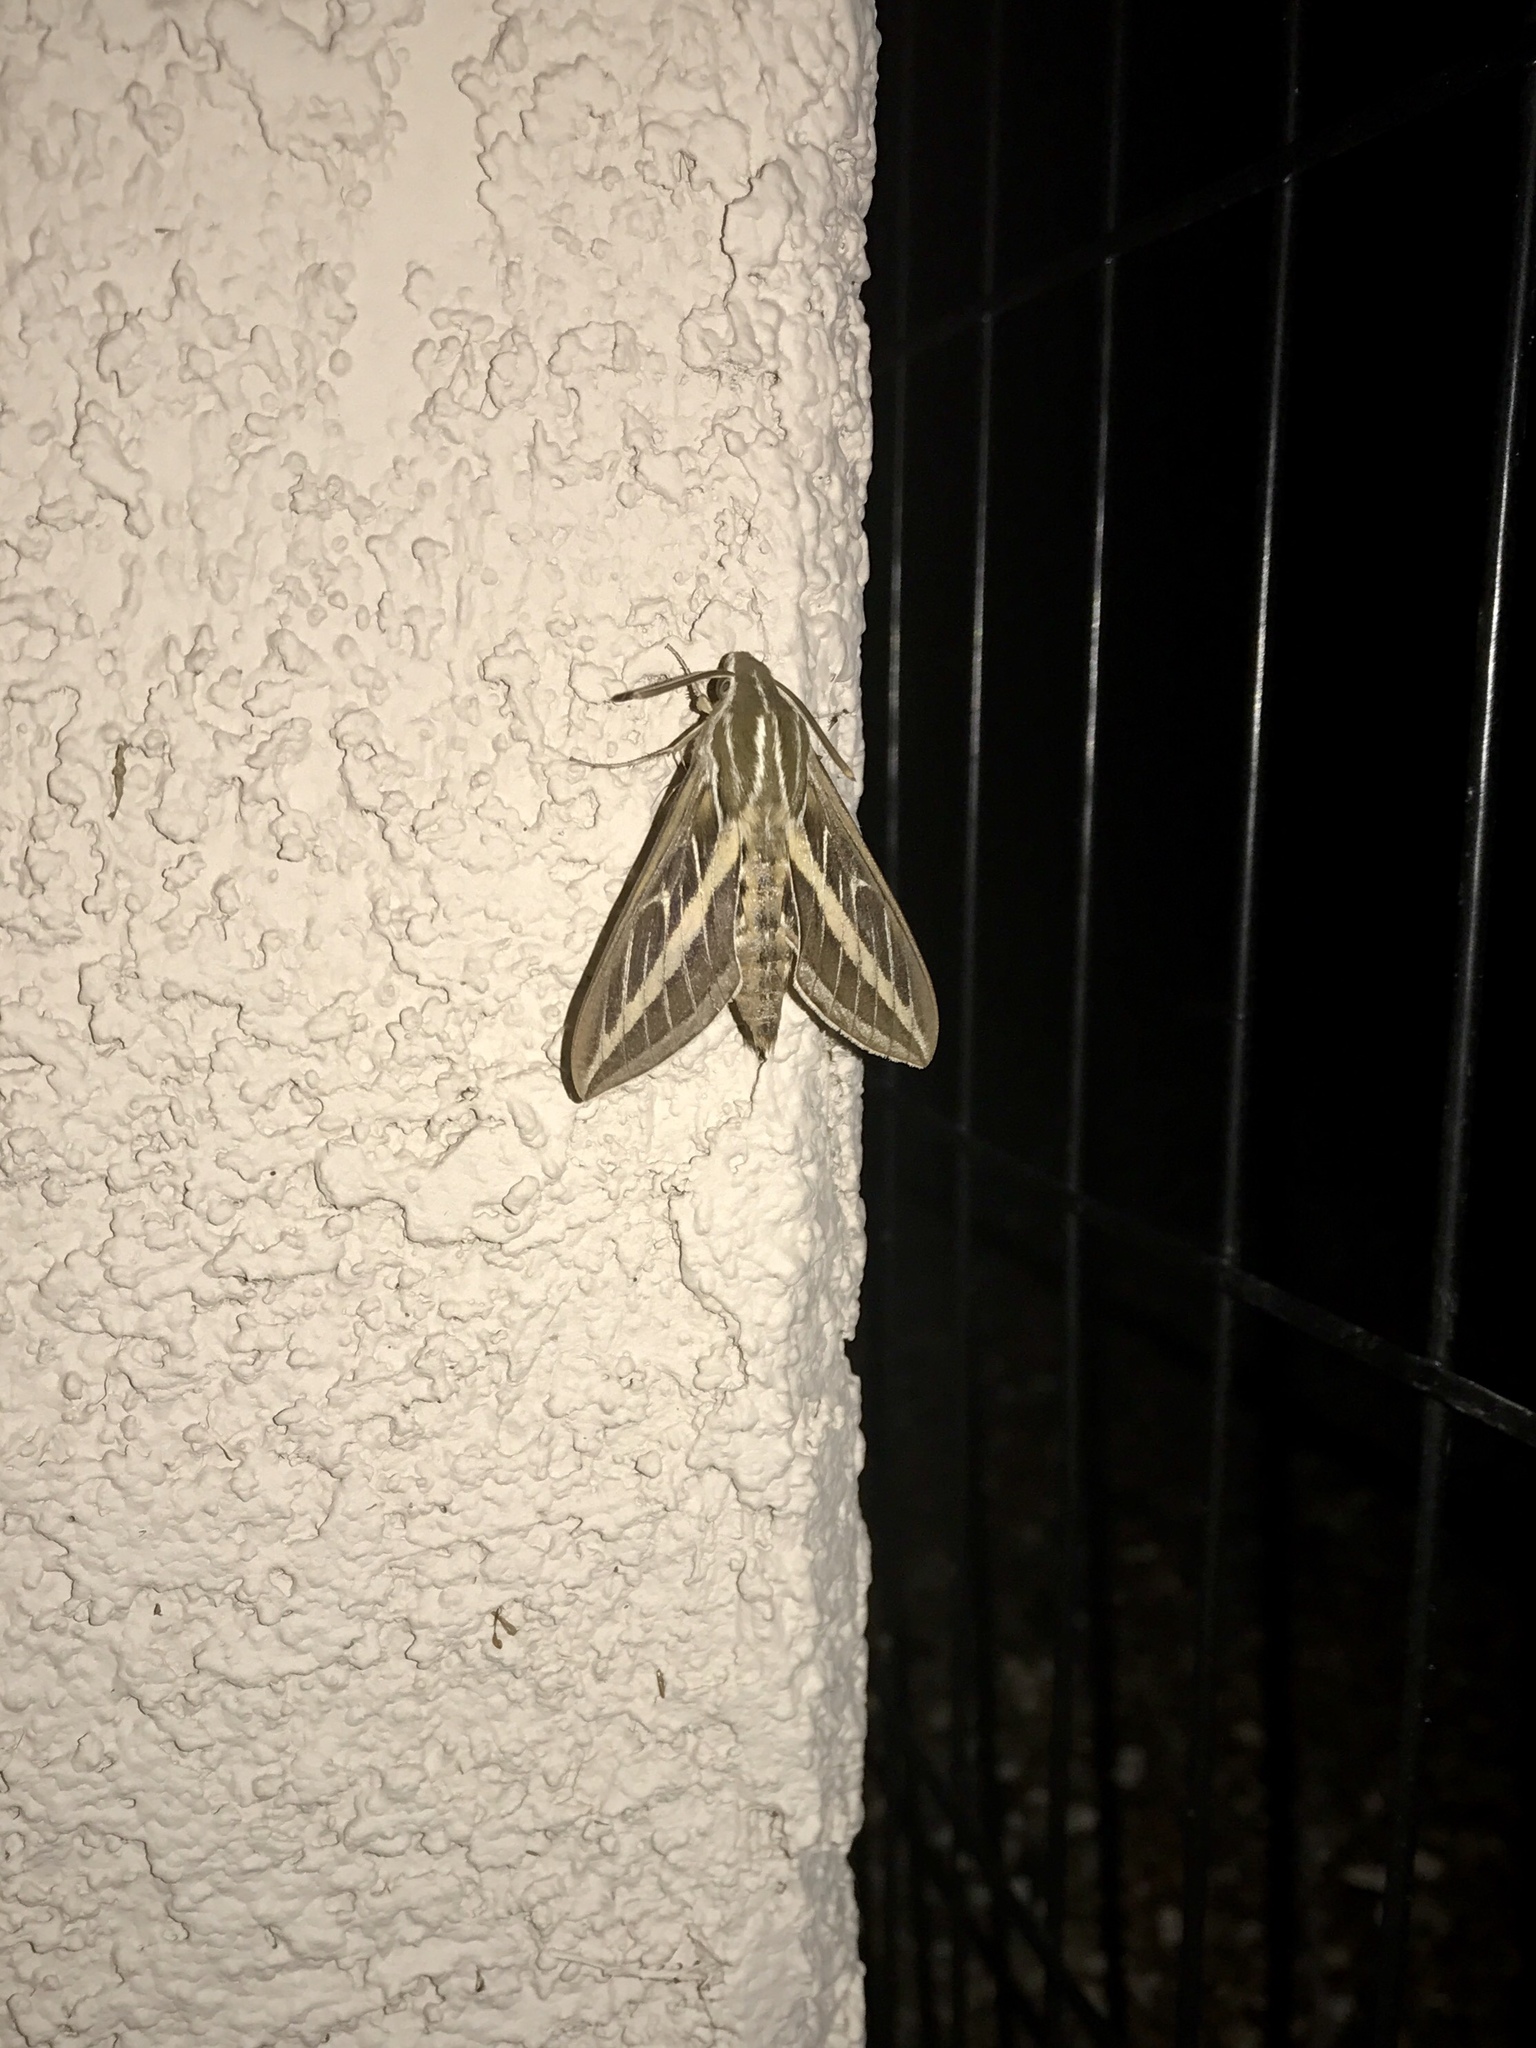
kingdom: Animalia
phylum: Arthropoda
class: Insecta
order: Lepidoptera
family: Sphingidae
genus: Hyles
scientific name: Hyles lineata
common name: White-lined sphinx
